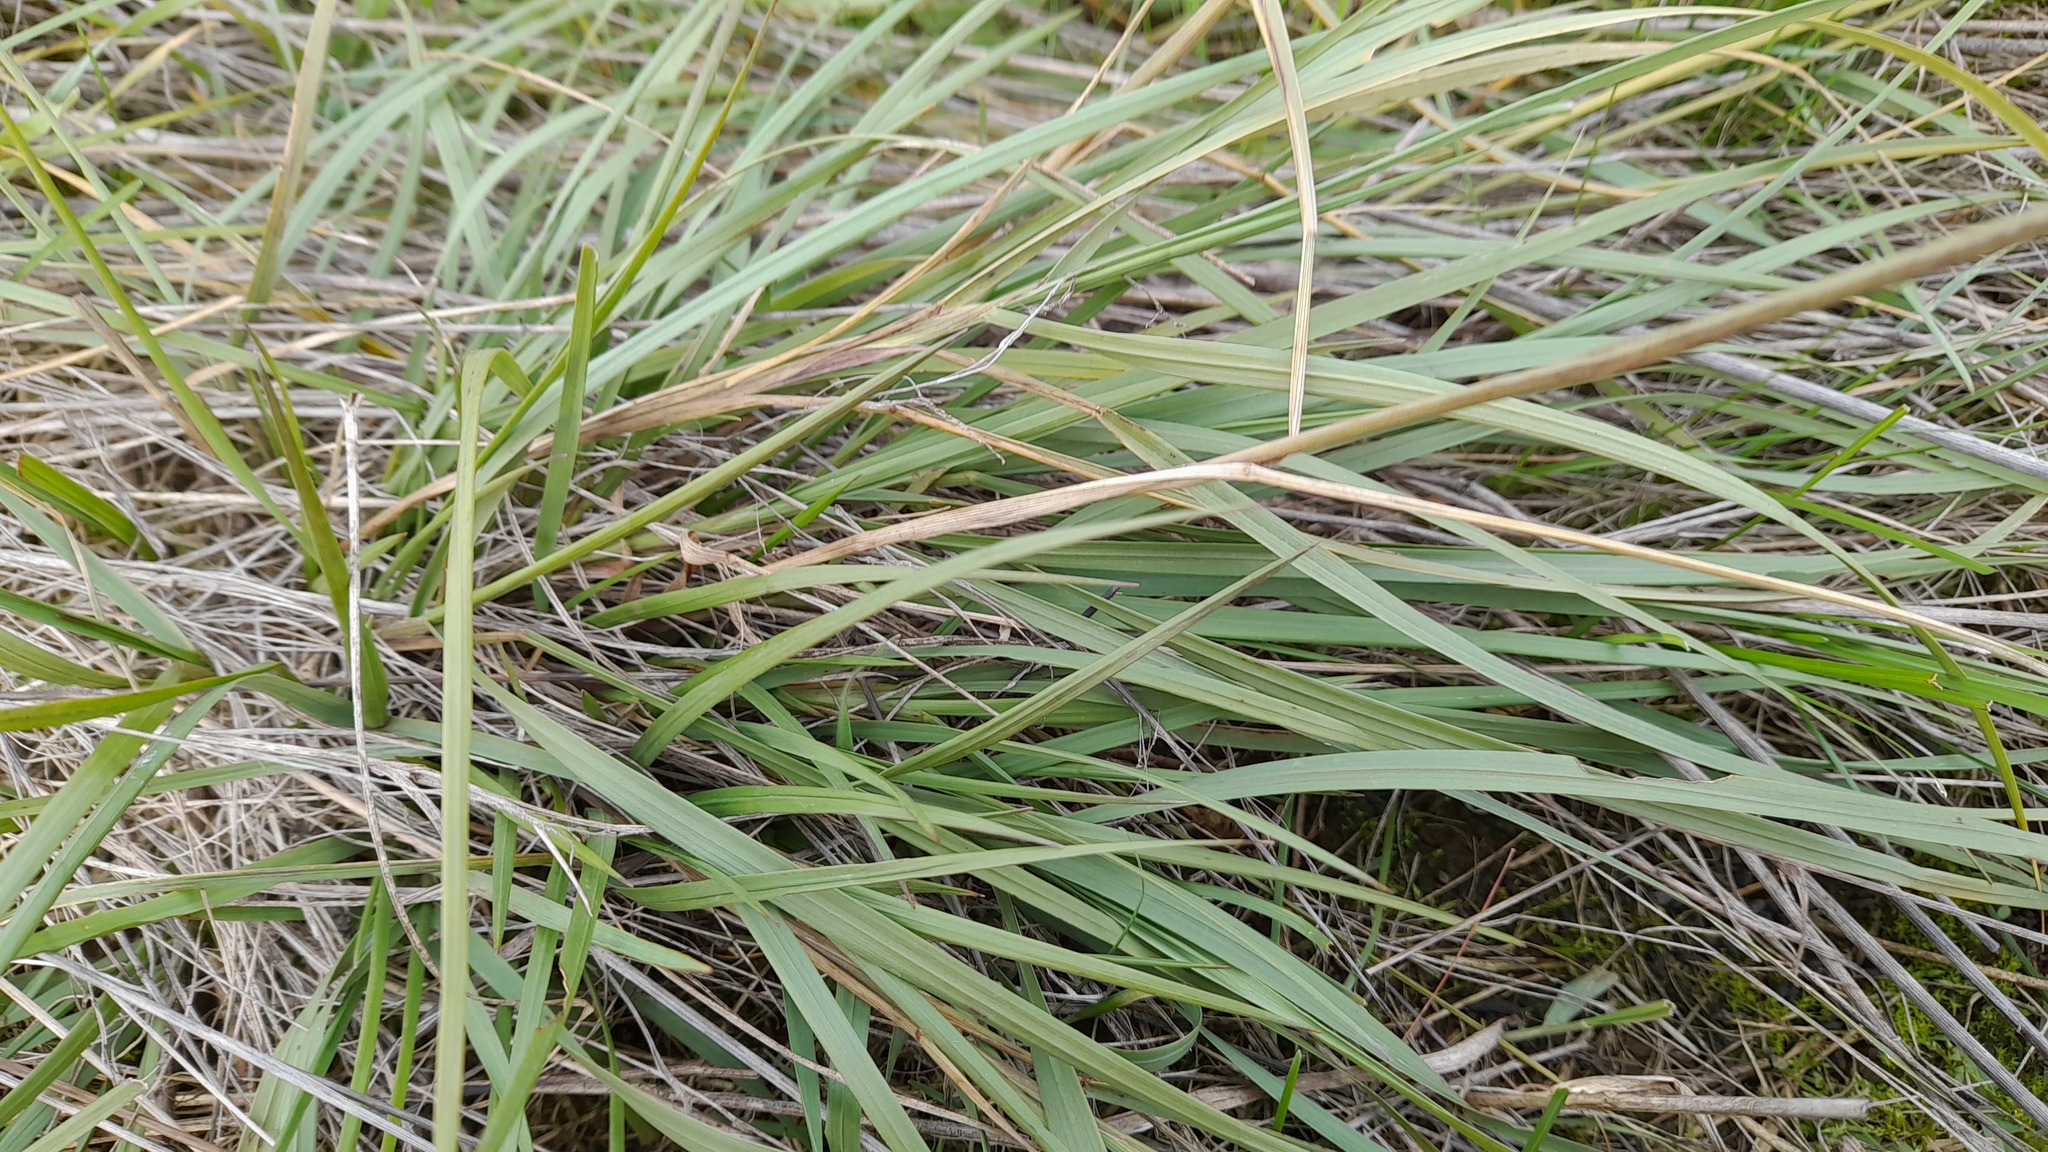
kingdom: Plantae
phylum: Tracheophyta
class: Liliopsida
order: Poales
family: Poaceae
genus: Melica
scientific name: Melica transsilvanica
